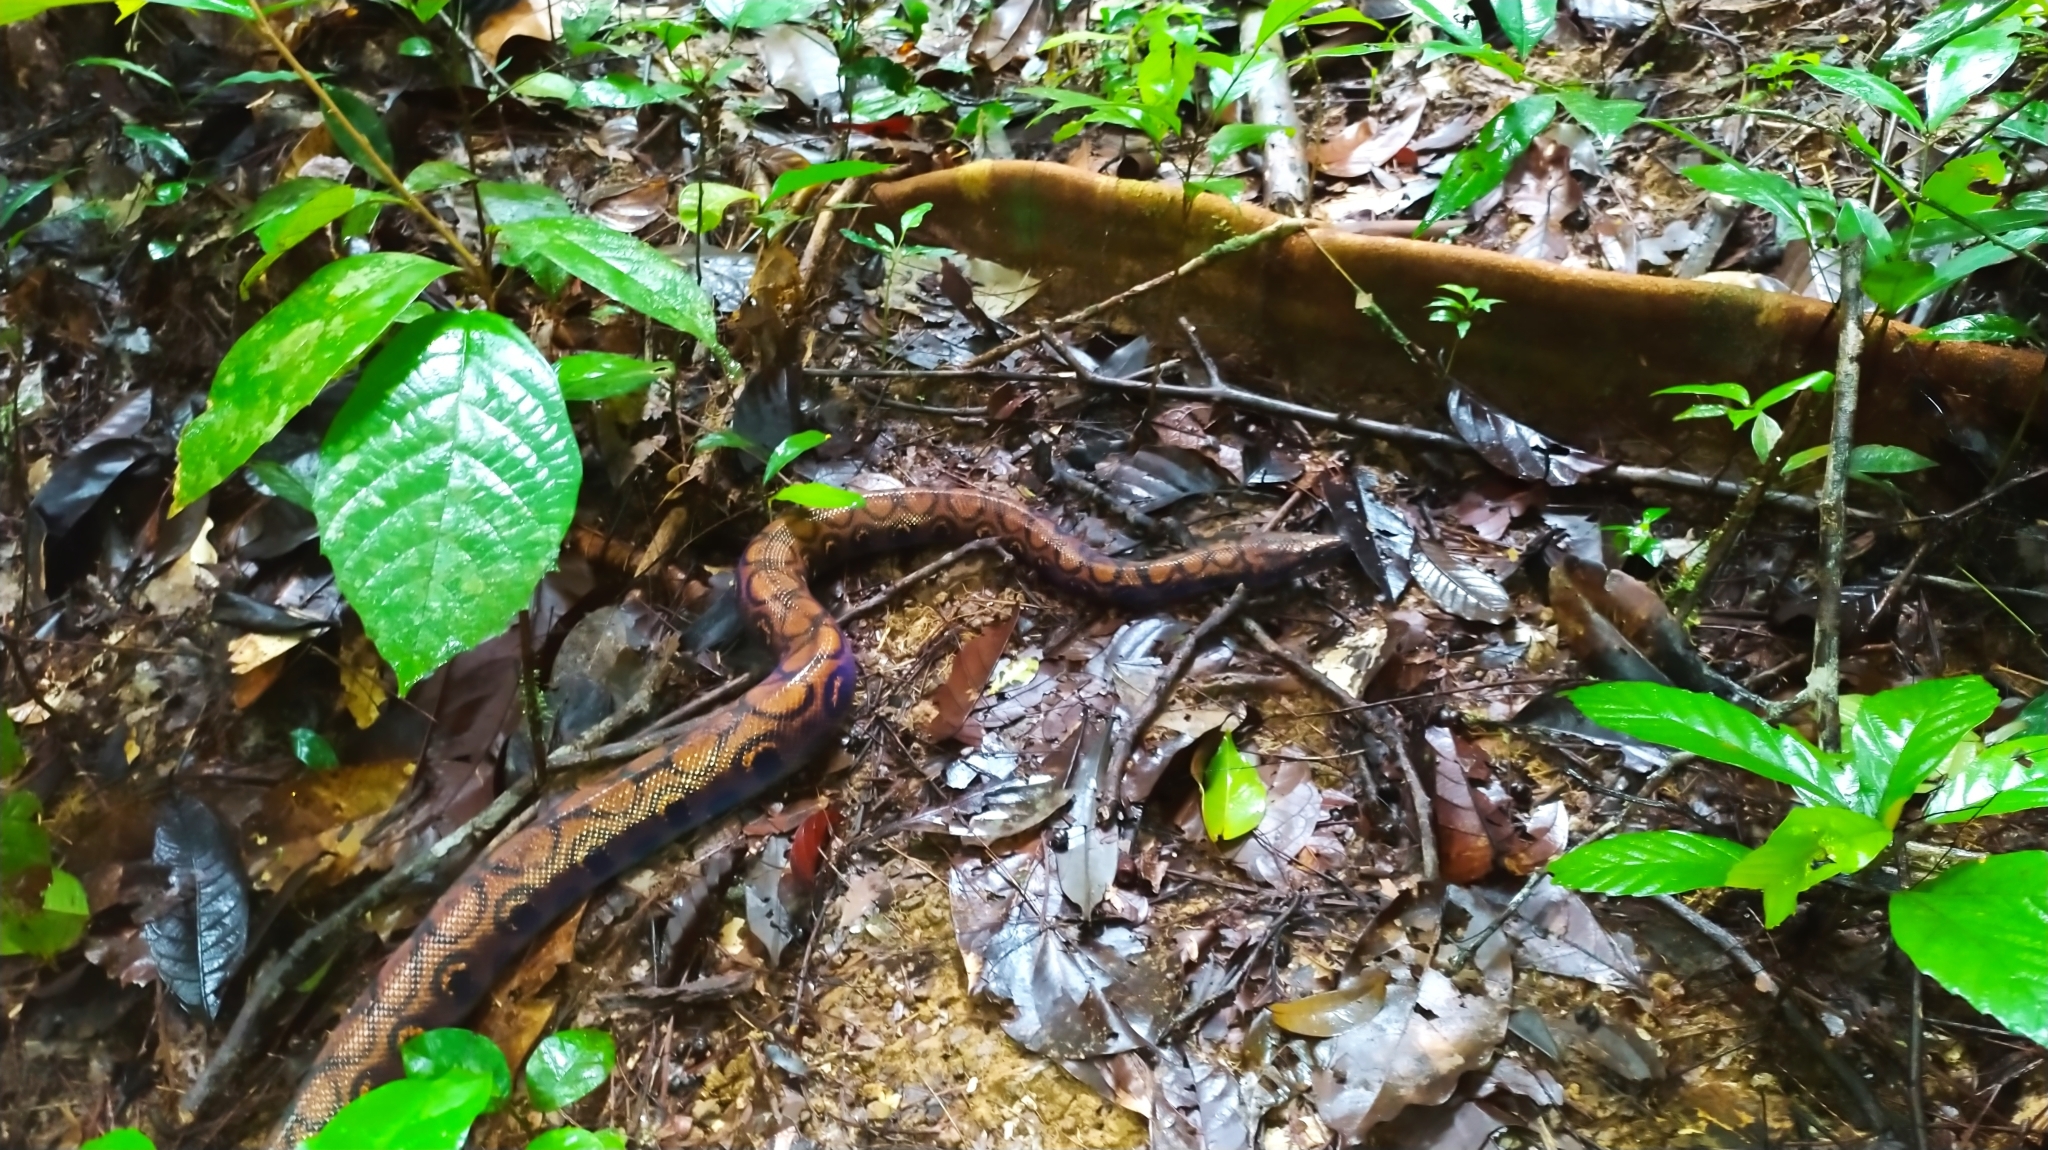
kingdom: Animalia
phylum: Chordata
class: Squamata
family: Boidae
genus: Epicrates
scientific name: Epicrates cenchria
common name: Rainbow boa
